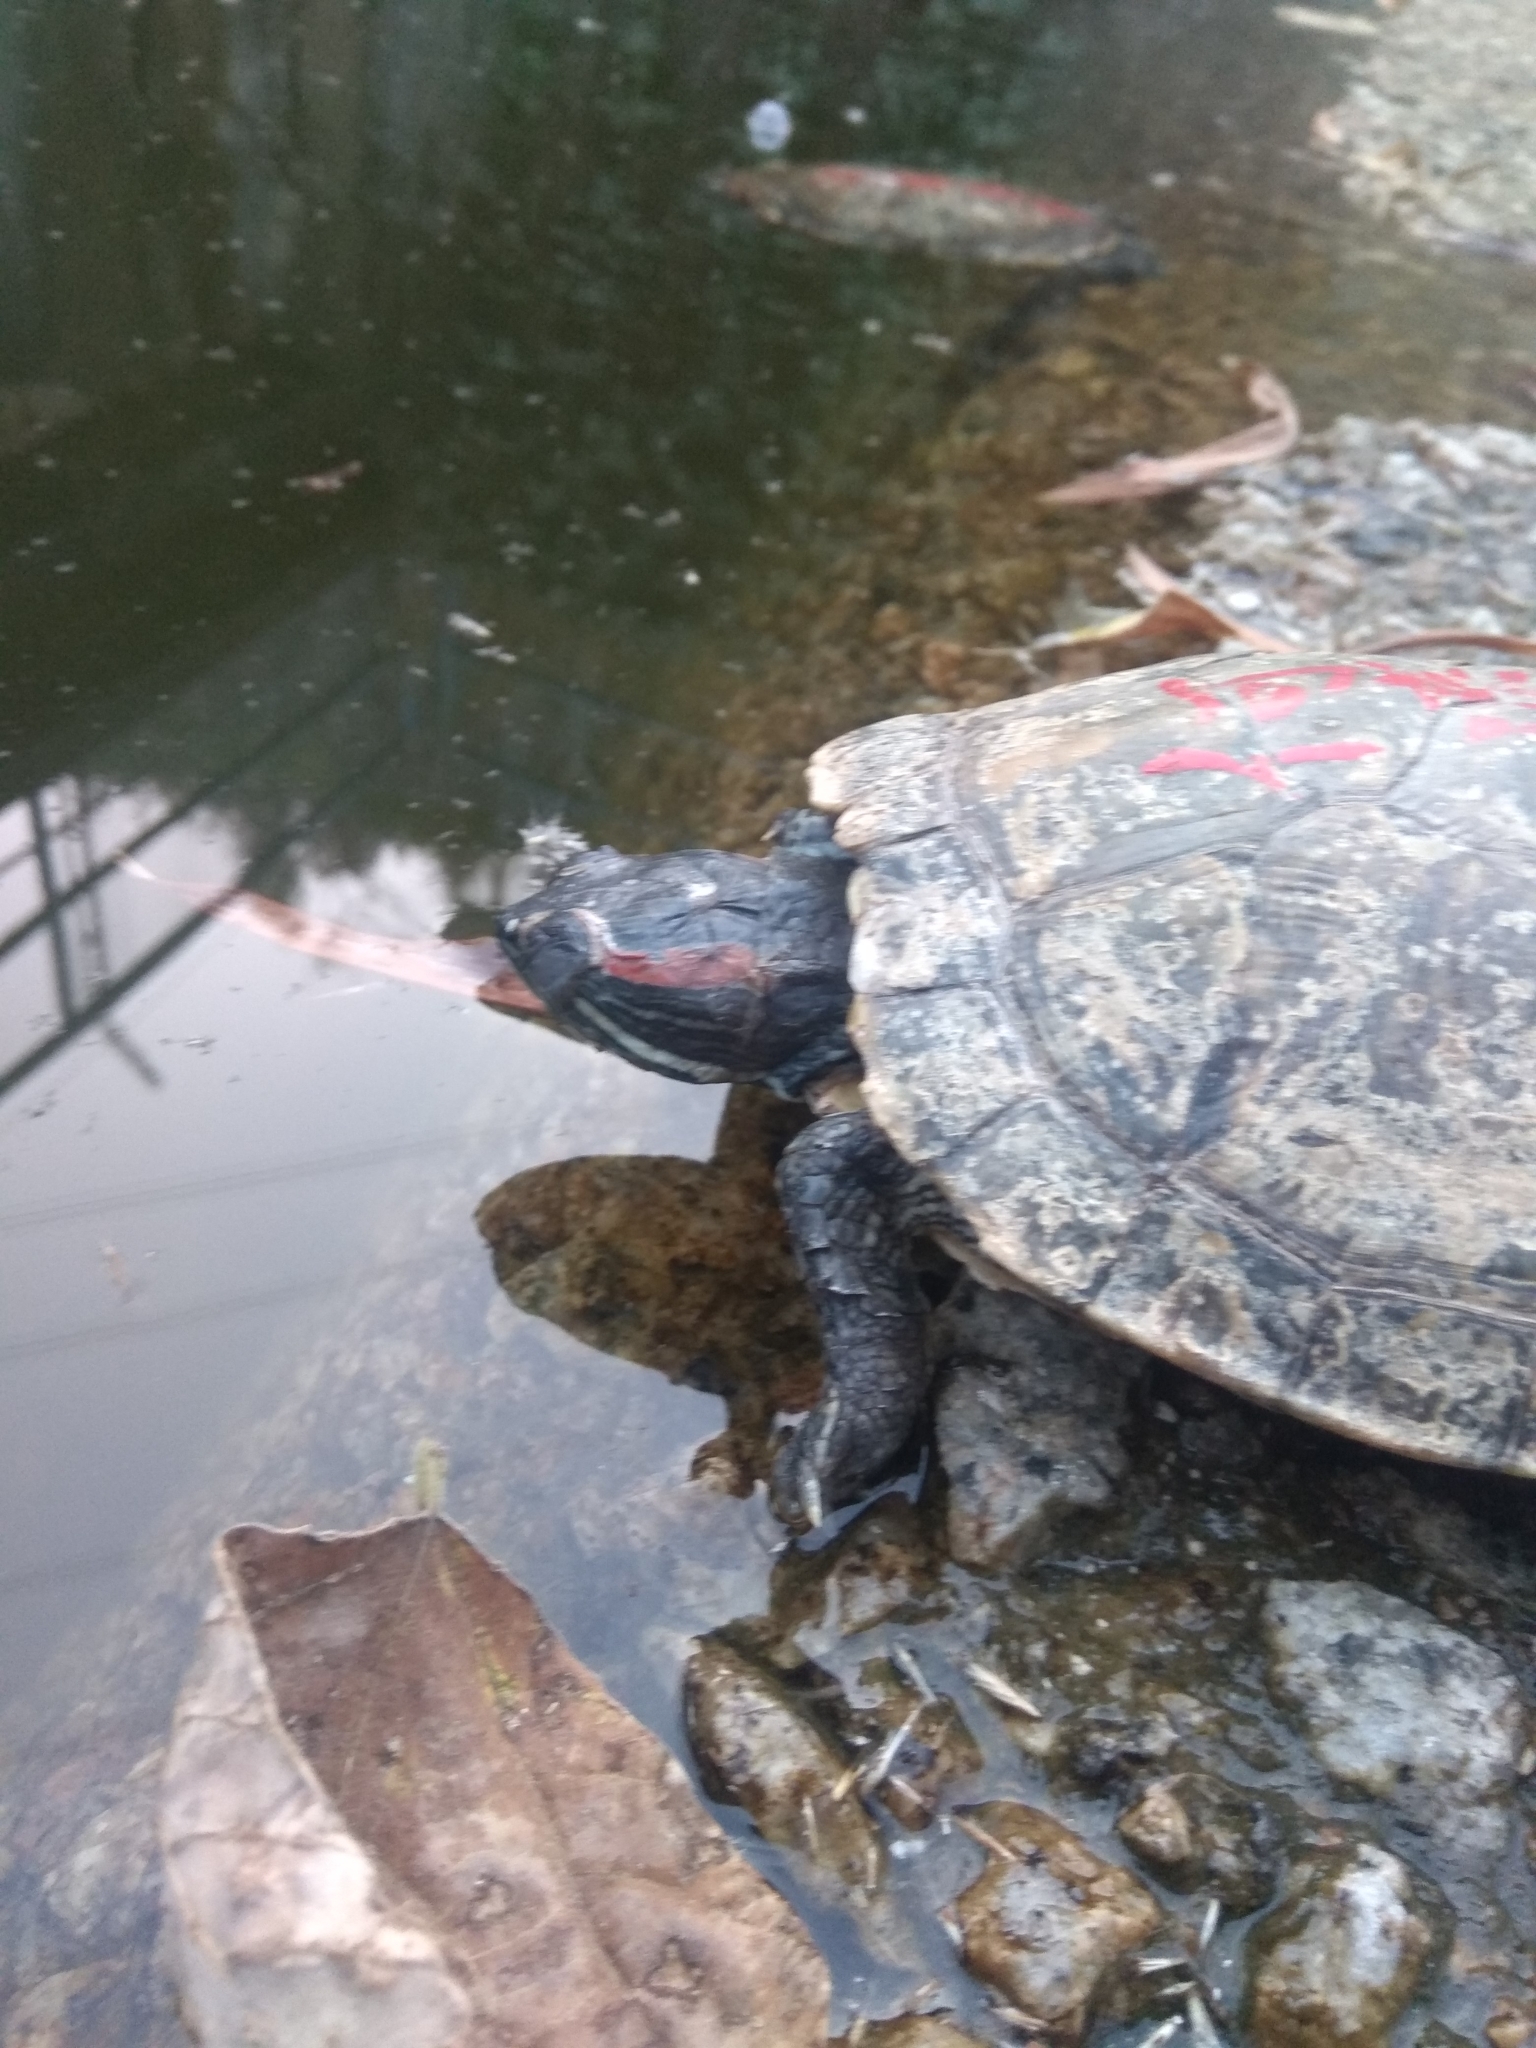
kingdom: Animalia
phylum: Chordata
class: Testudines
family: Emydidae
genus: Trachemys
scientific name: Trachemys scripta
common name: Slider
